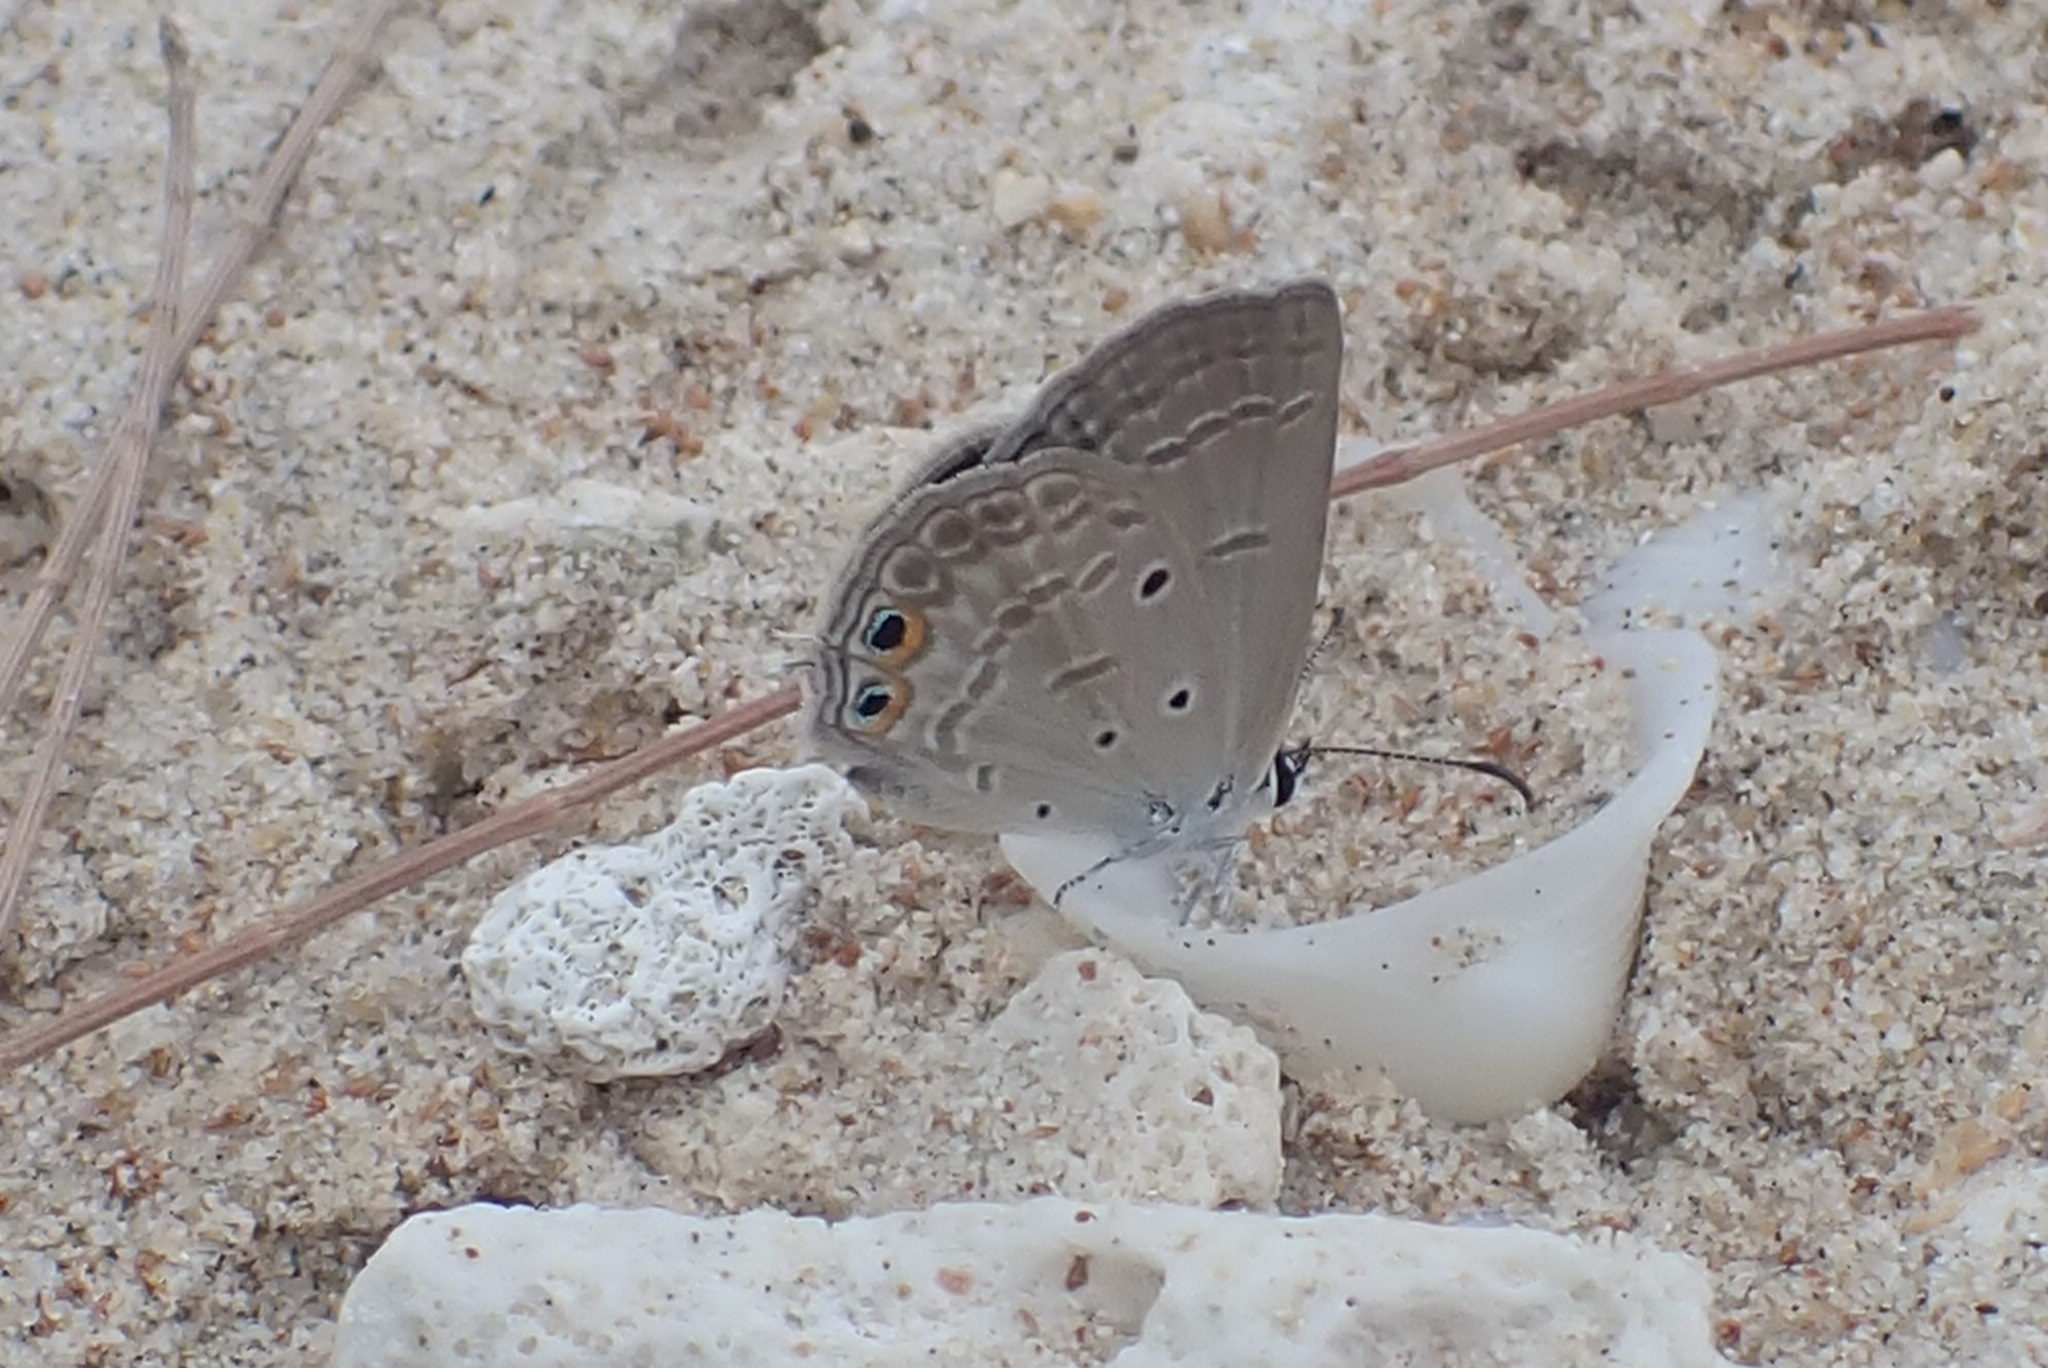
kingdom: Animalia
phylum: Arthropoda
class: Insecta
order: Lepidoptera
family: Lycaenidae
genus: Euchrysops
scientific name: Euchrysops cnejus
